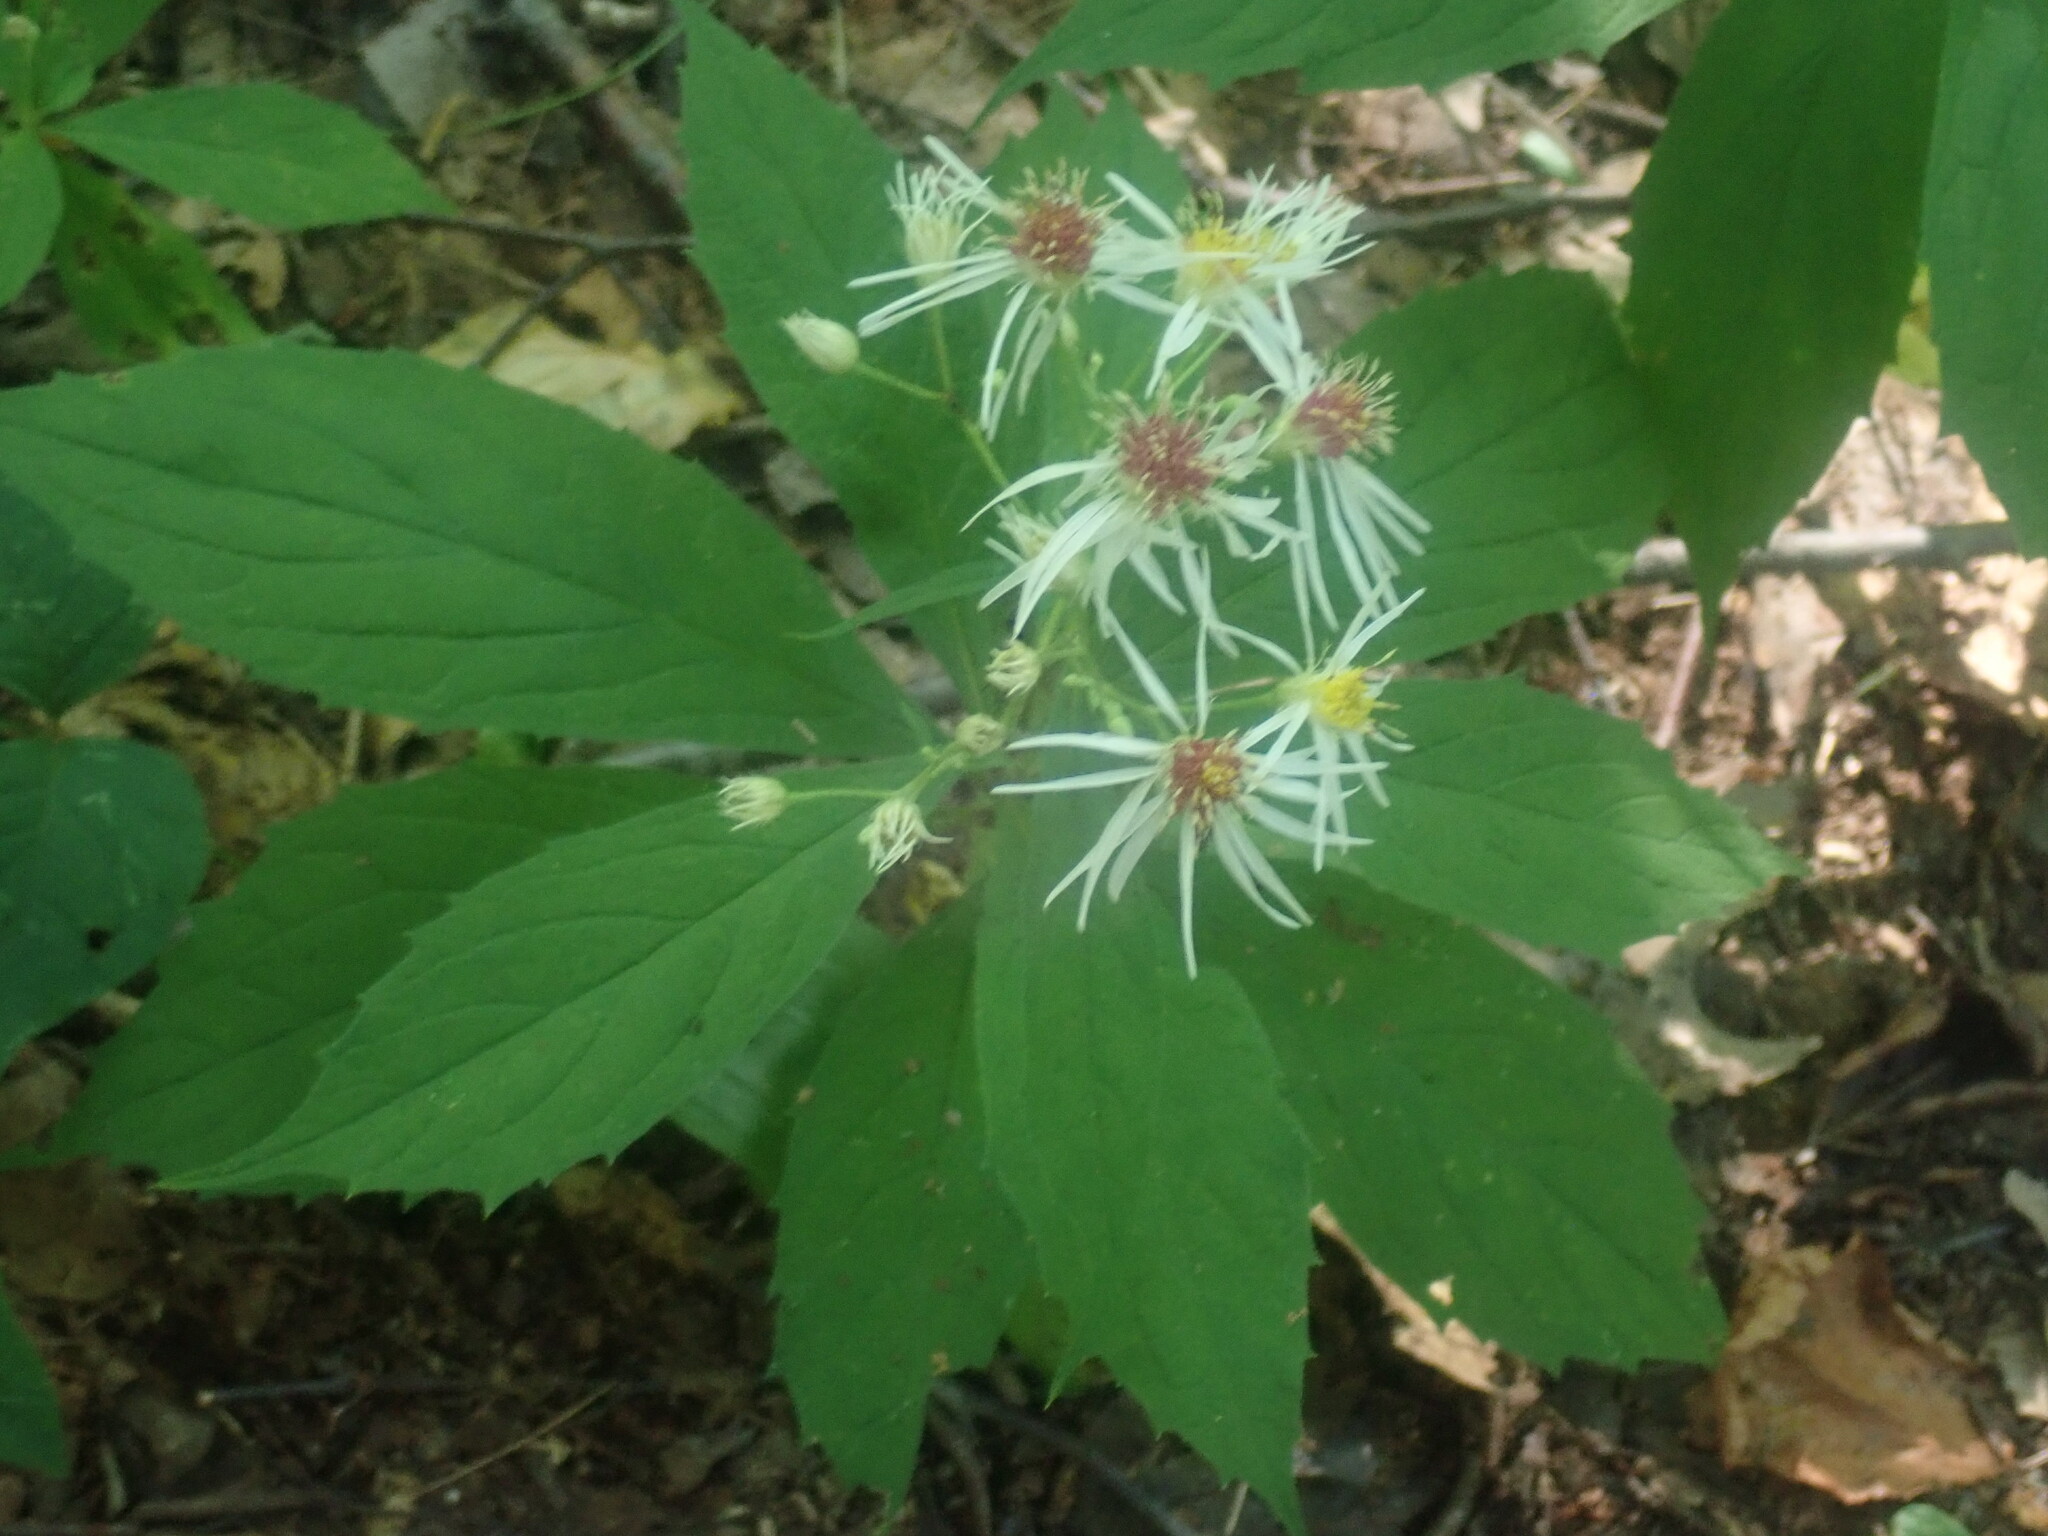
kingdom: Plantae
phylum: Tracheophyta
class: Magnoliopsida
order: Asterales
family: Asteraceae
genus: Oclemena
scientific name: Oclemena acuminata
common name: Mountain aster
